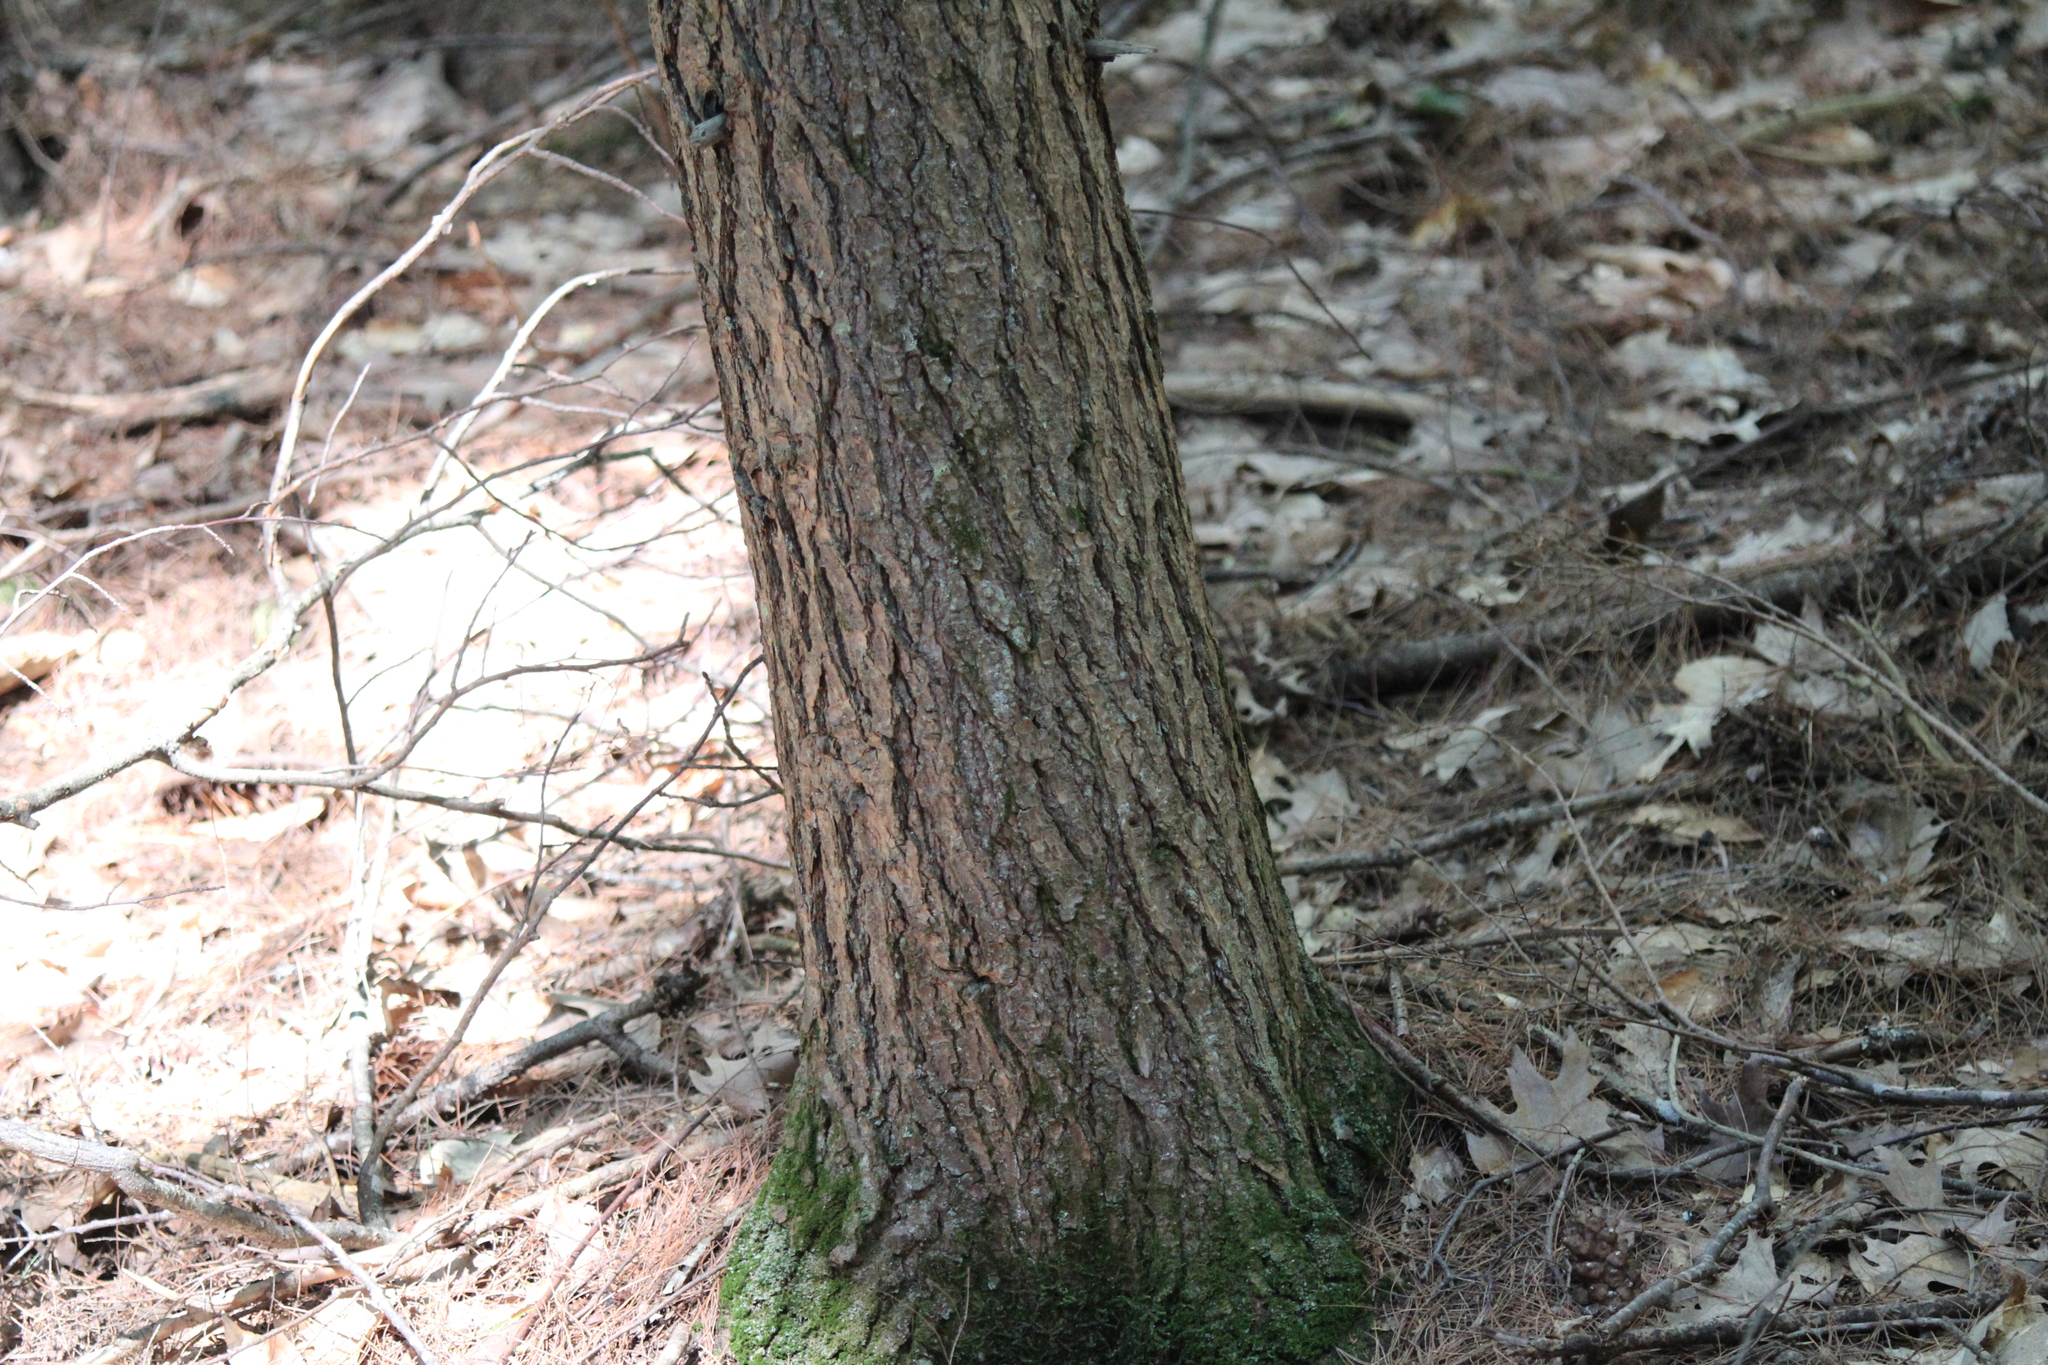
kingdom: Plantae
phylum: Tracheophyta
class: Pinopsida
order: Pinales
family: Pinaceae
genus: Tsuga
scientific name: Tsuga canadensis
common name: Eastern hemlock
